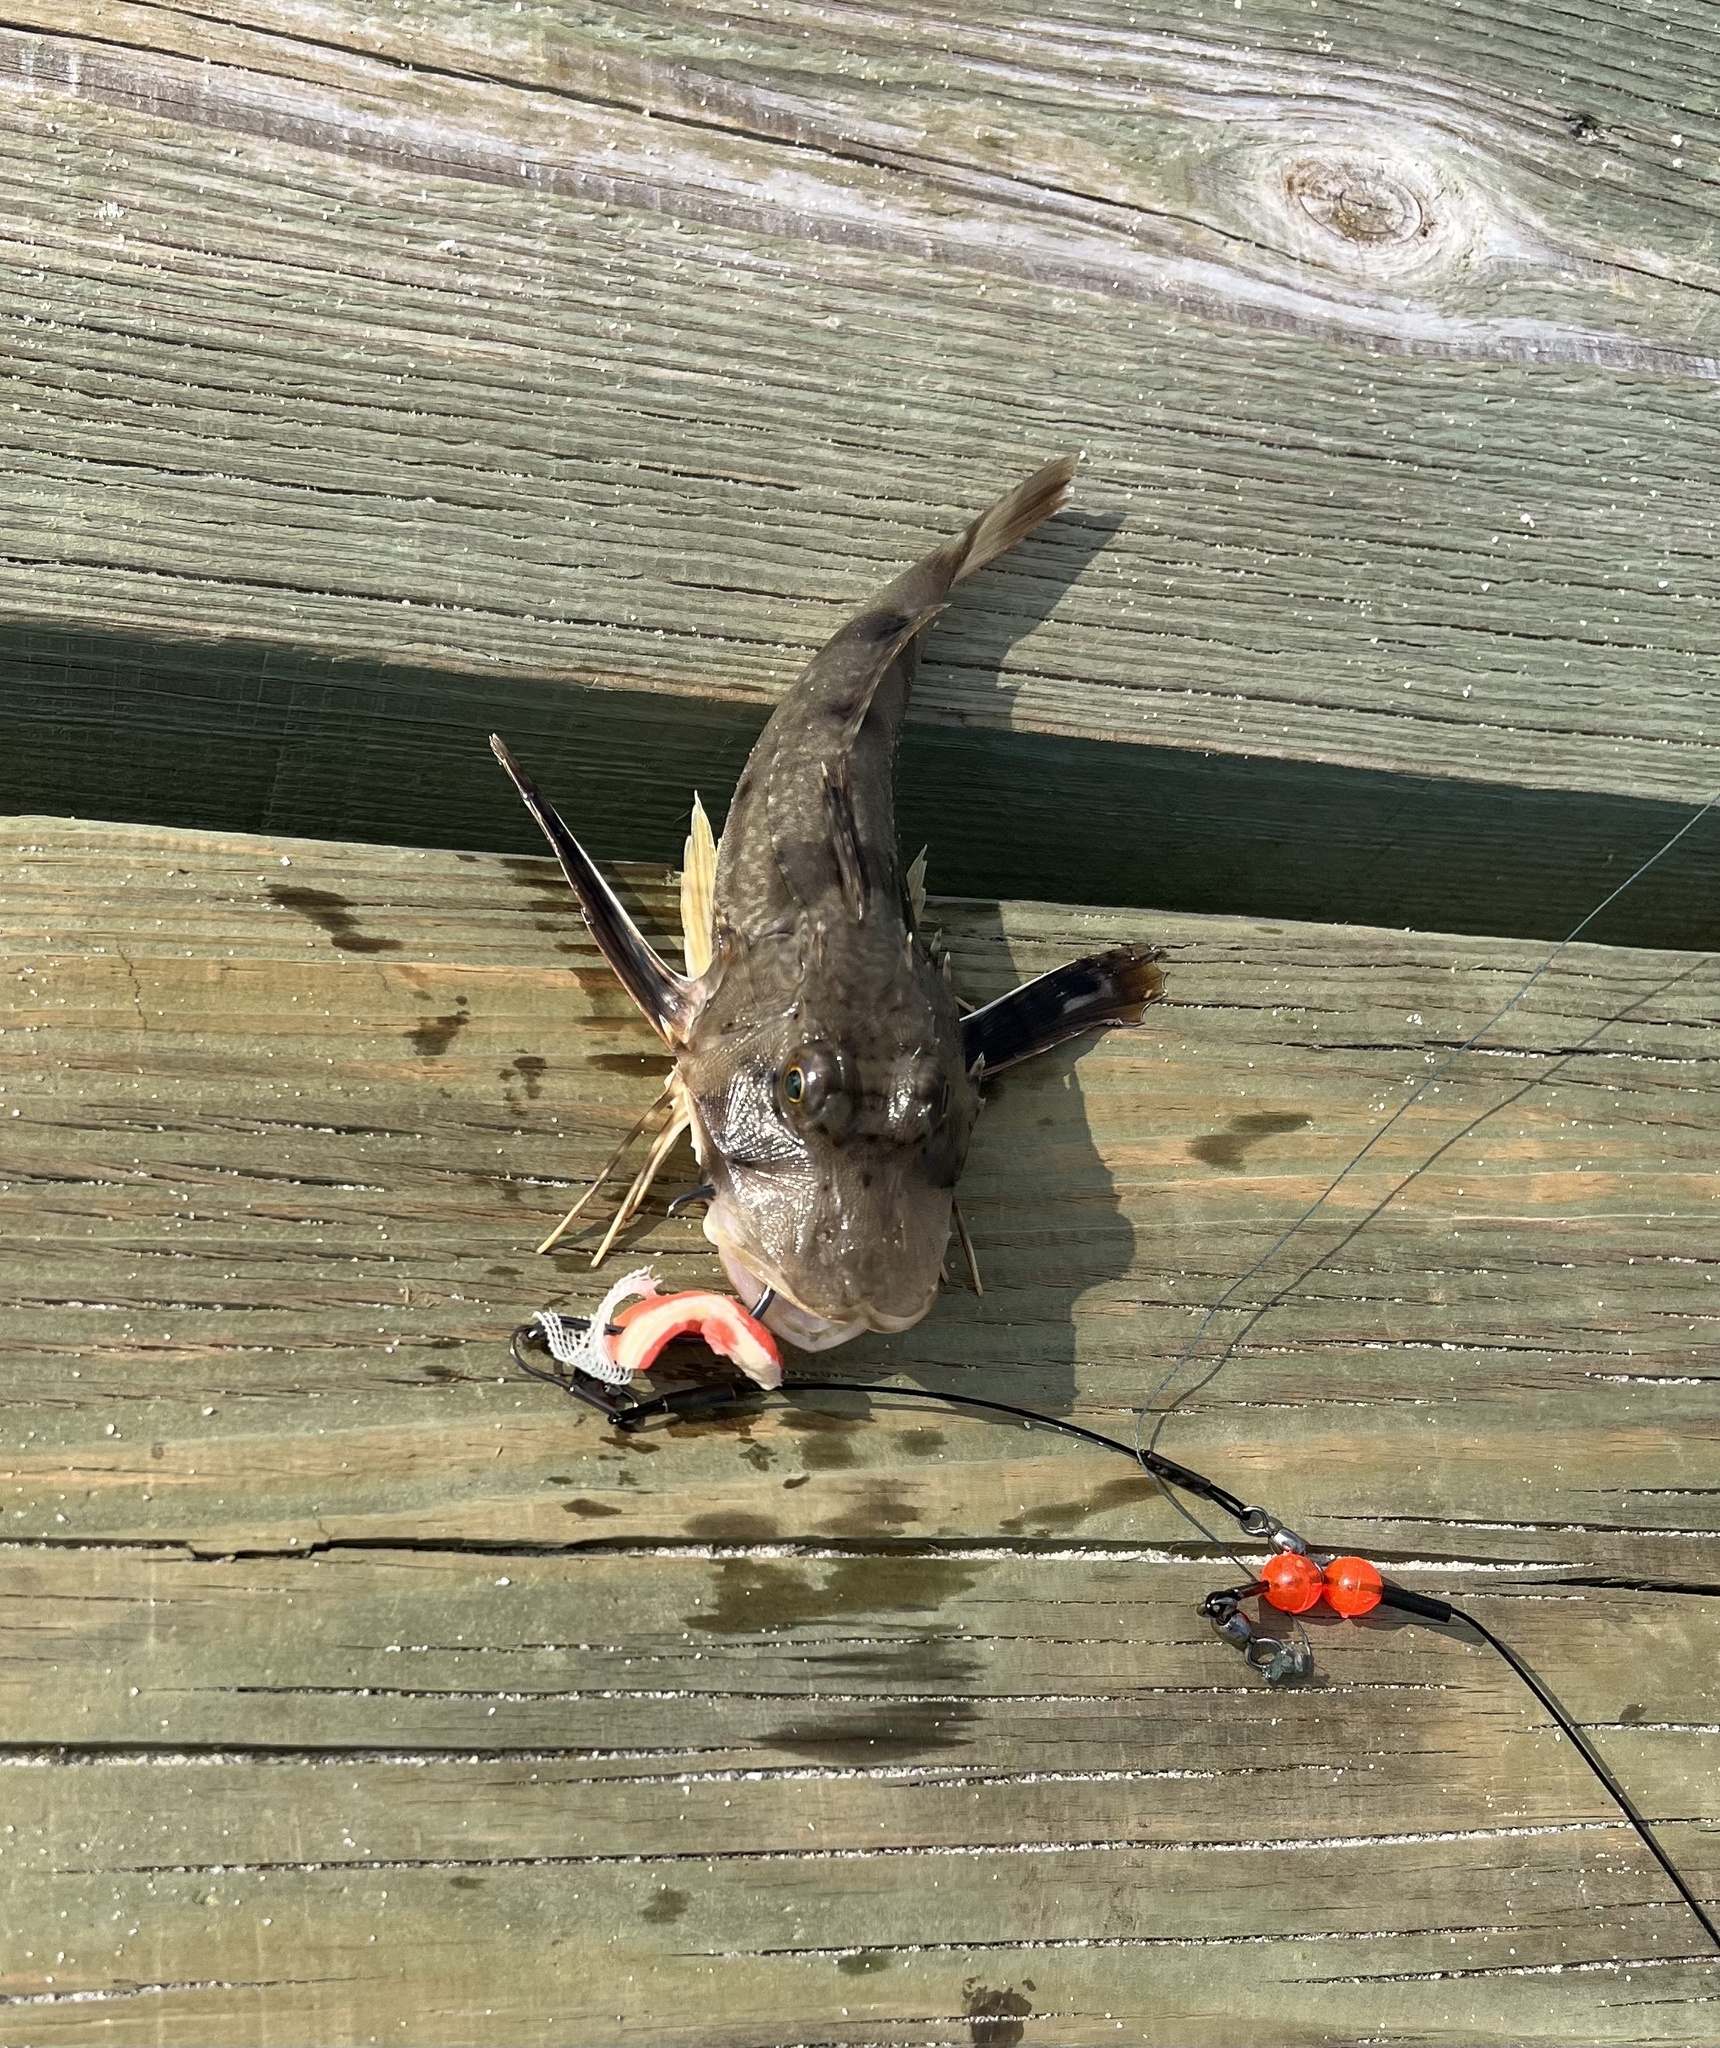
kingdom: Animalia
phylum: Chordata
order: Scorpaeniformes
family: Triglidae
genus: Prionotus
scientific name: Prionotus tribulus
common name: Bighead searobin
